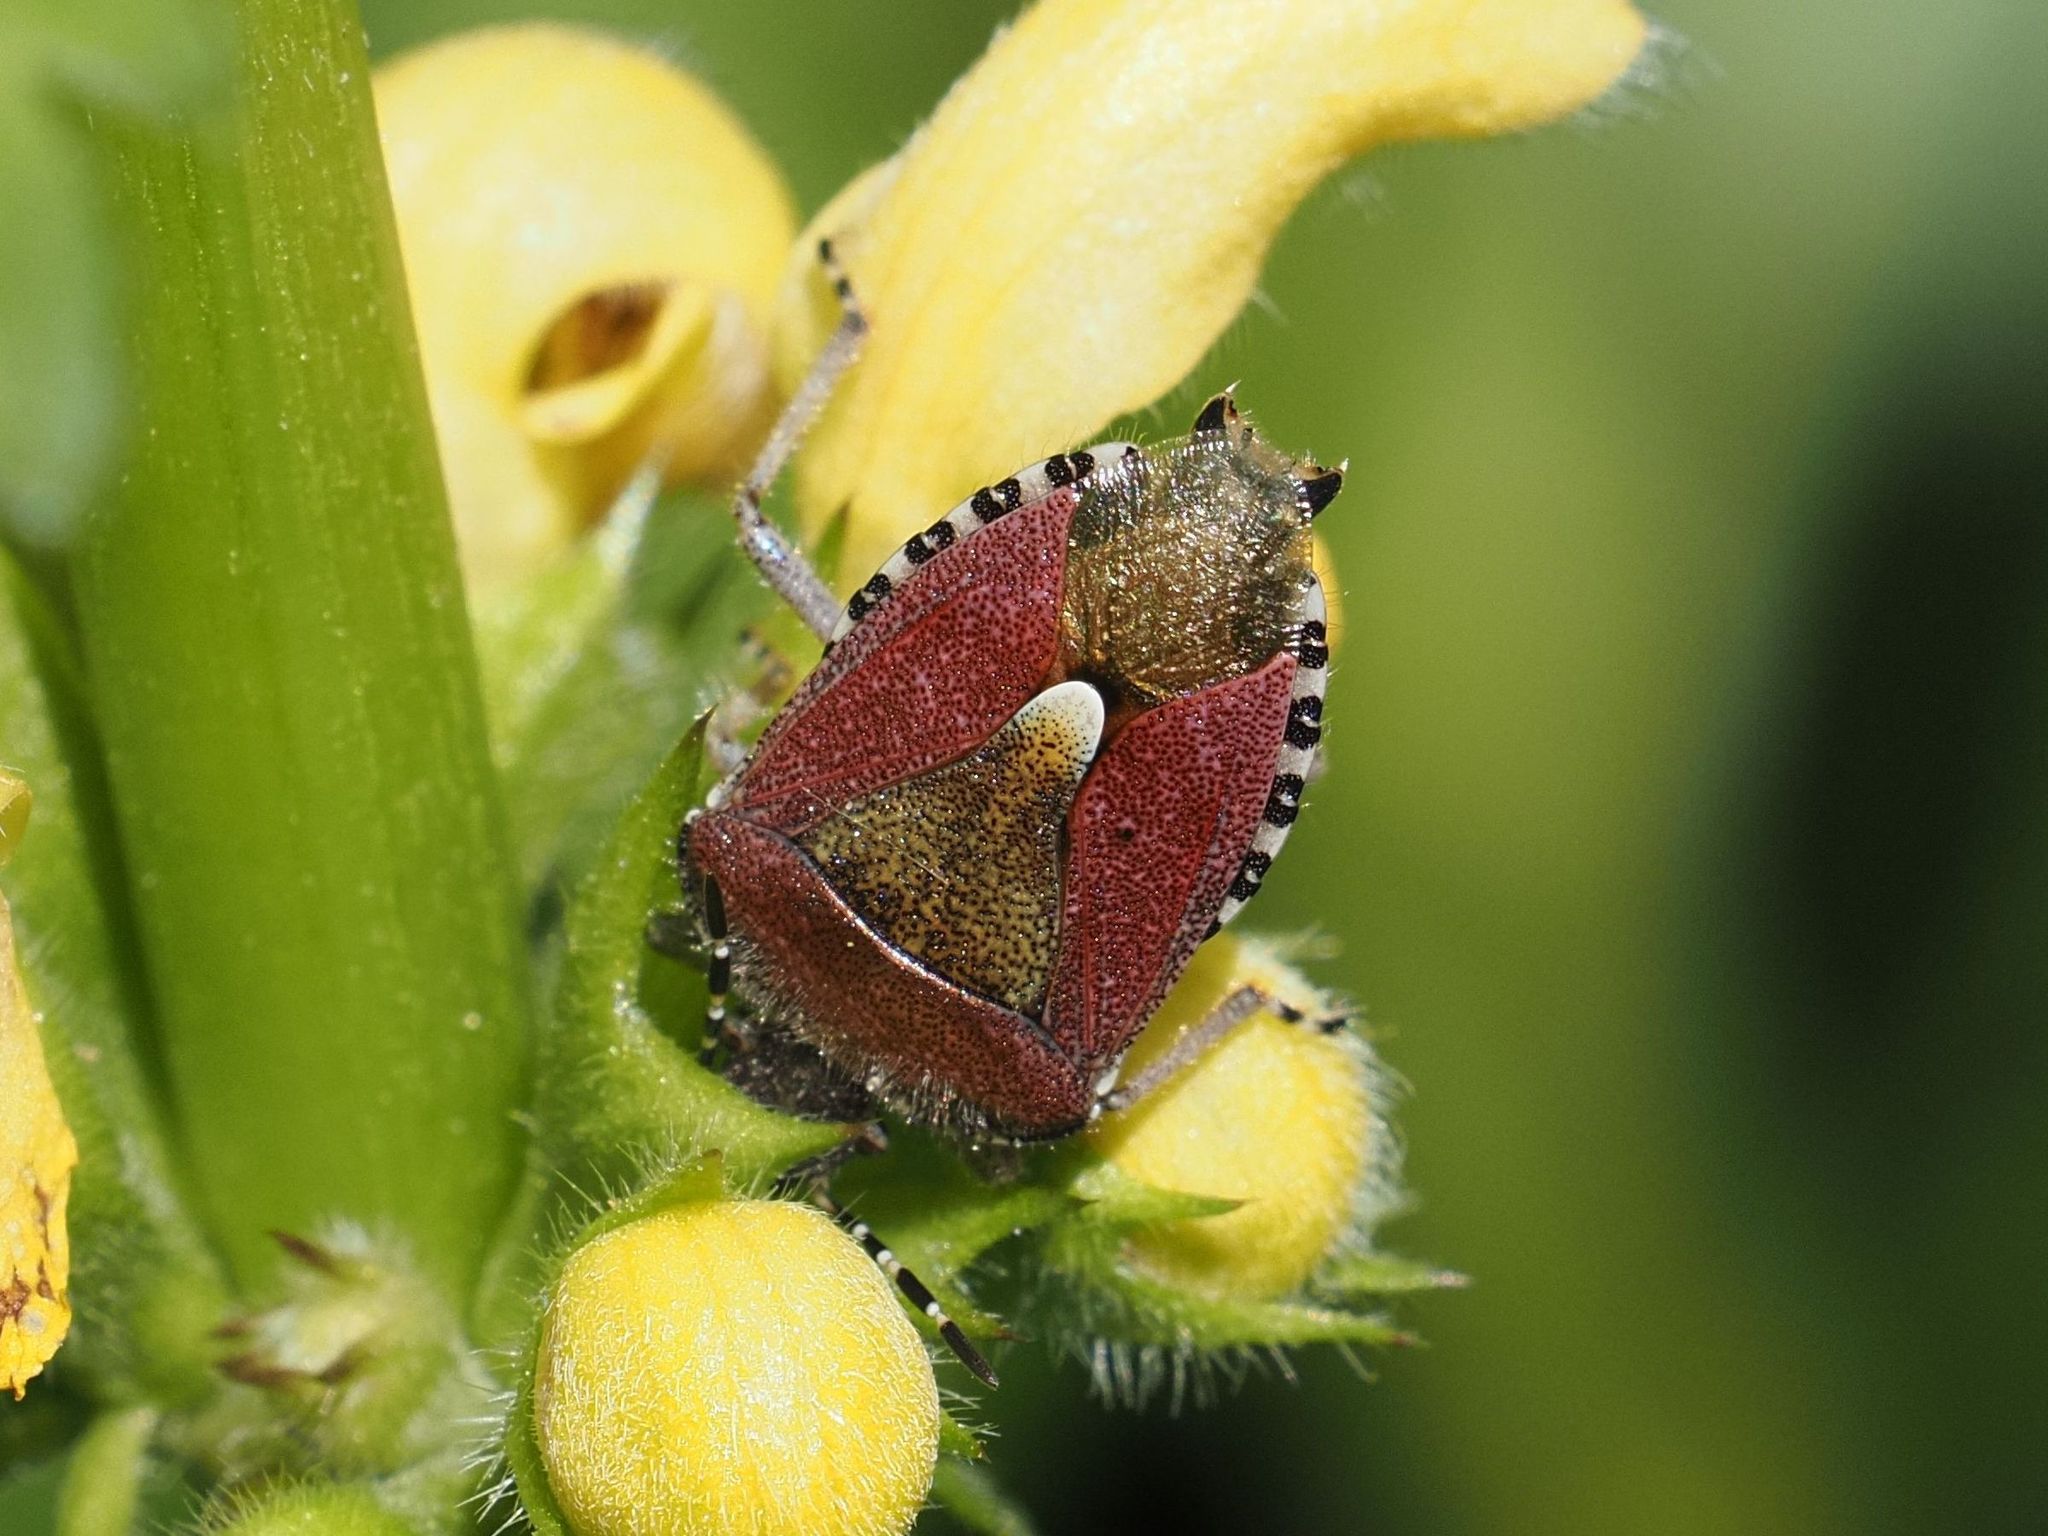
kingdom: Animalia
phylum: Arthropoda
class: Insecta
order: Hemiptera
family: Pentatomidae
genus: Dolycoris
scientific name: Dolycoris baccarum
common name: Sloe bug
